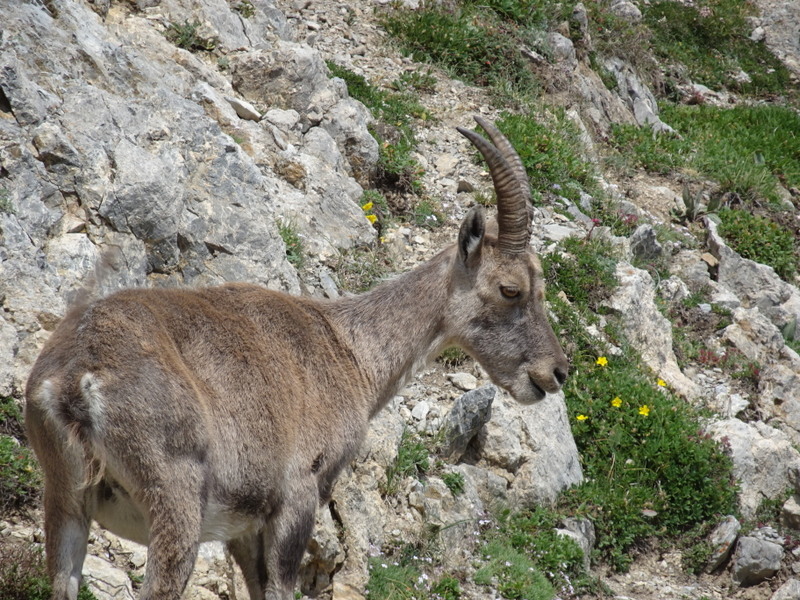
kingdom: Animalia
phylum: Chordata
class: Mammalia
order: Artiodactyla
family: Bovidae
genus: Capra
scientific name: Capra ibex
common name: Alpine ibex
